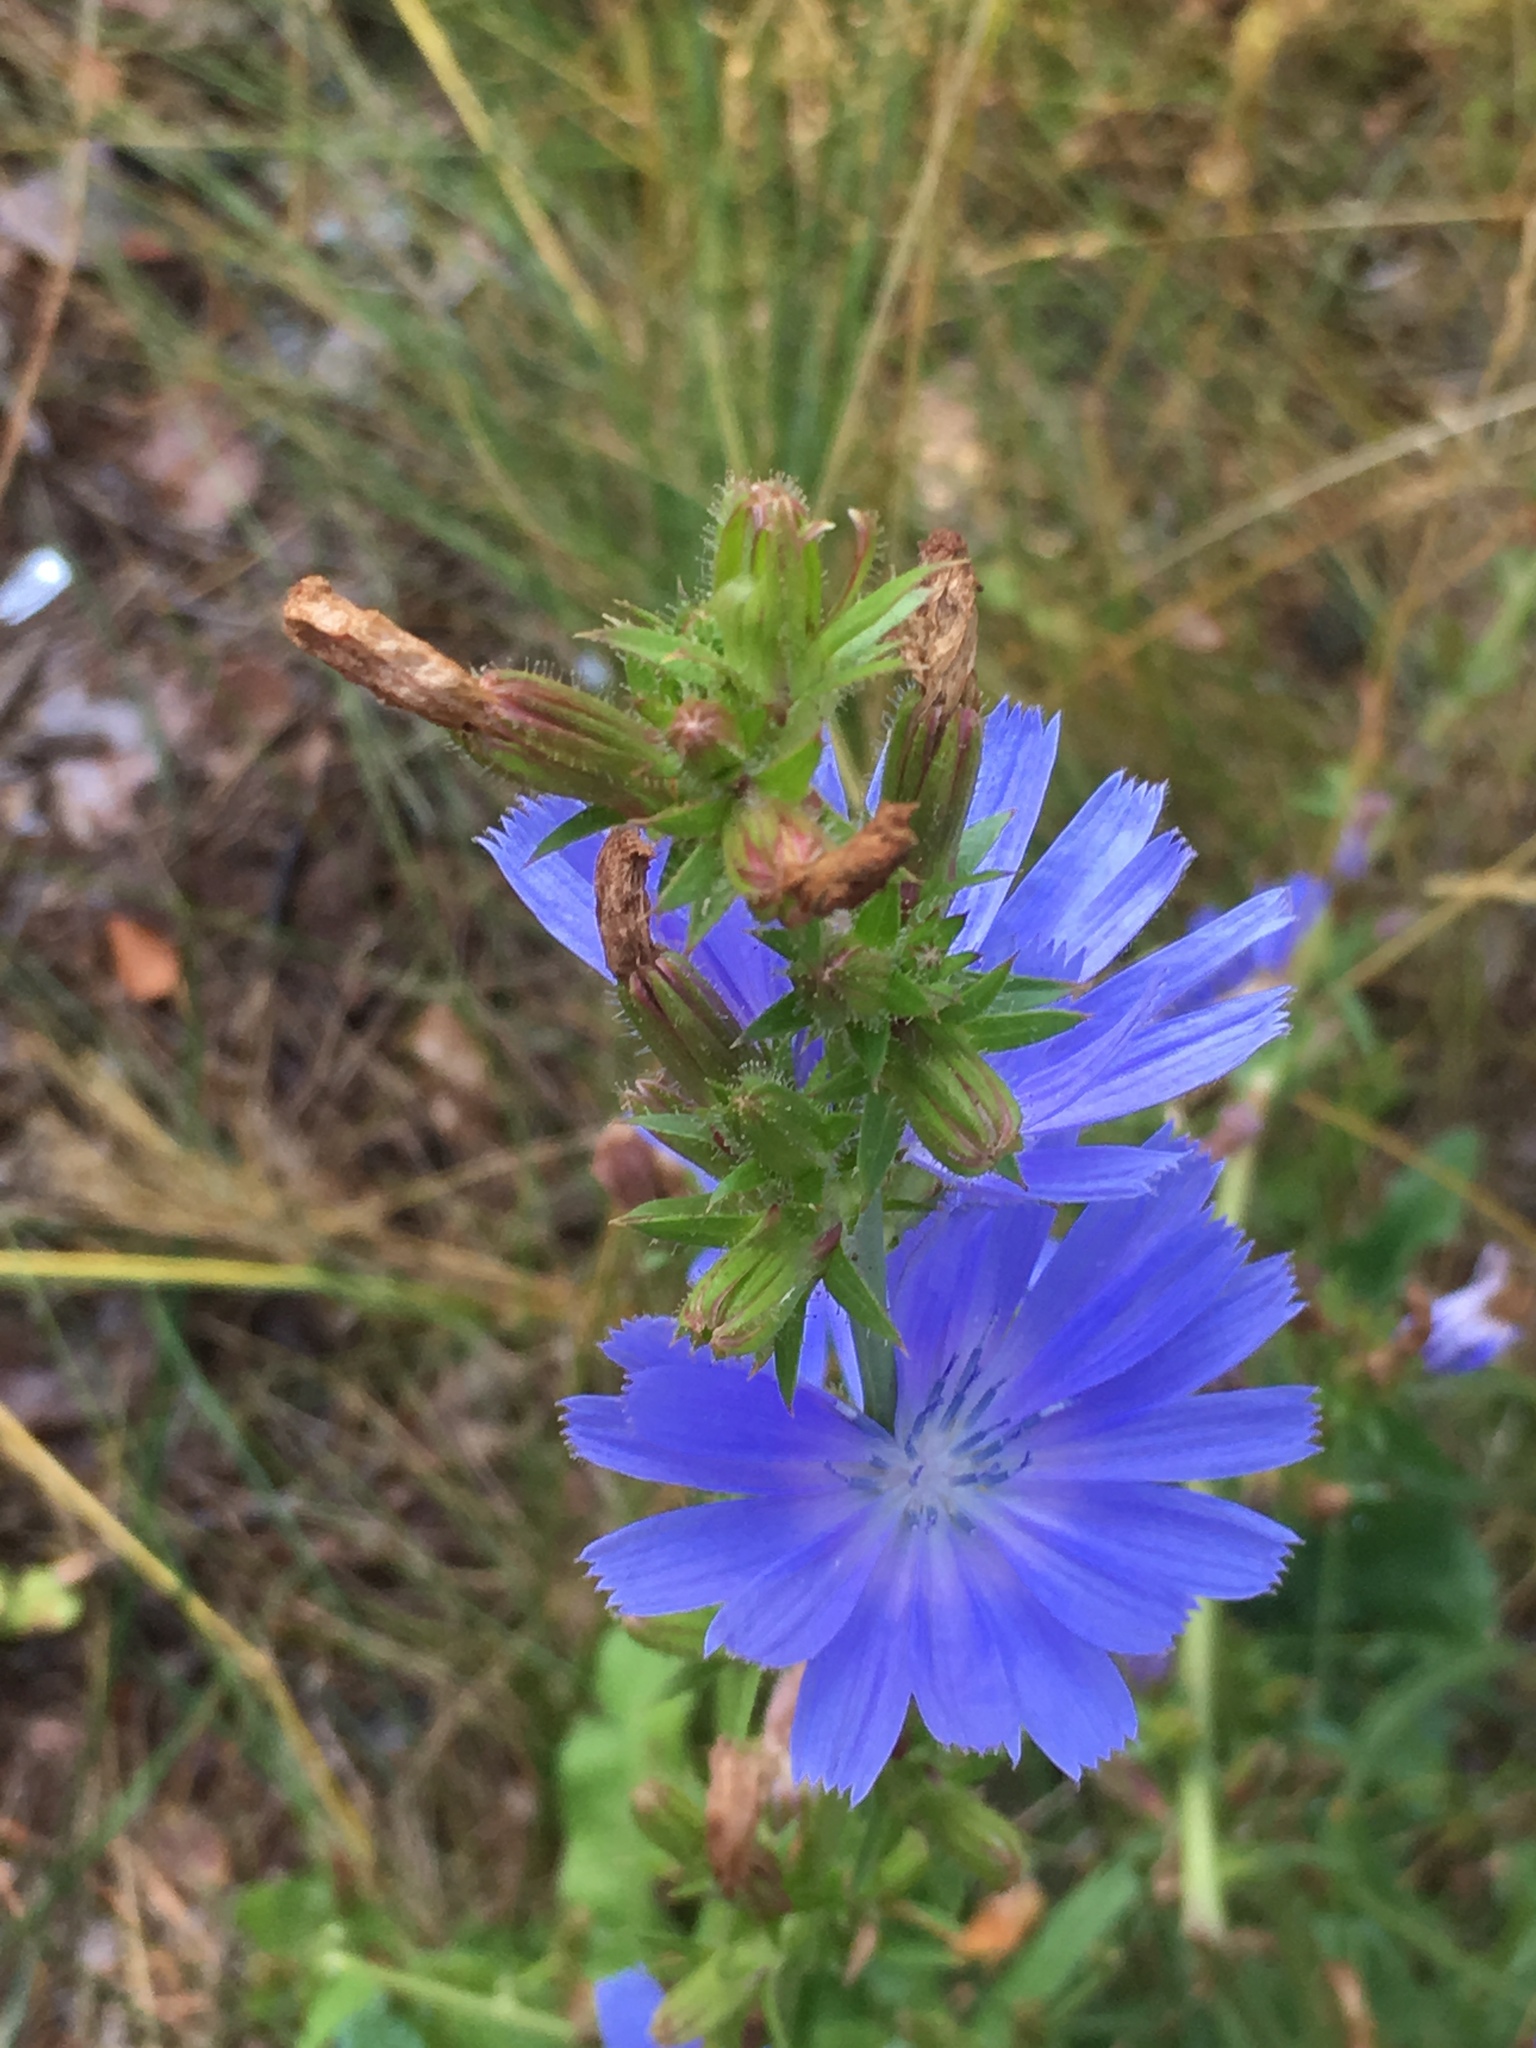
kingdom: Plantae
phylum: Tracheophyta
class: Magnoliopsida
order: Asterales
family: Asteraceae
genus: Cichorium
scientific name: Cichorium intybus
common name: Chicory
